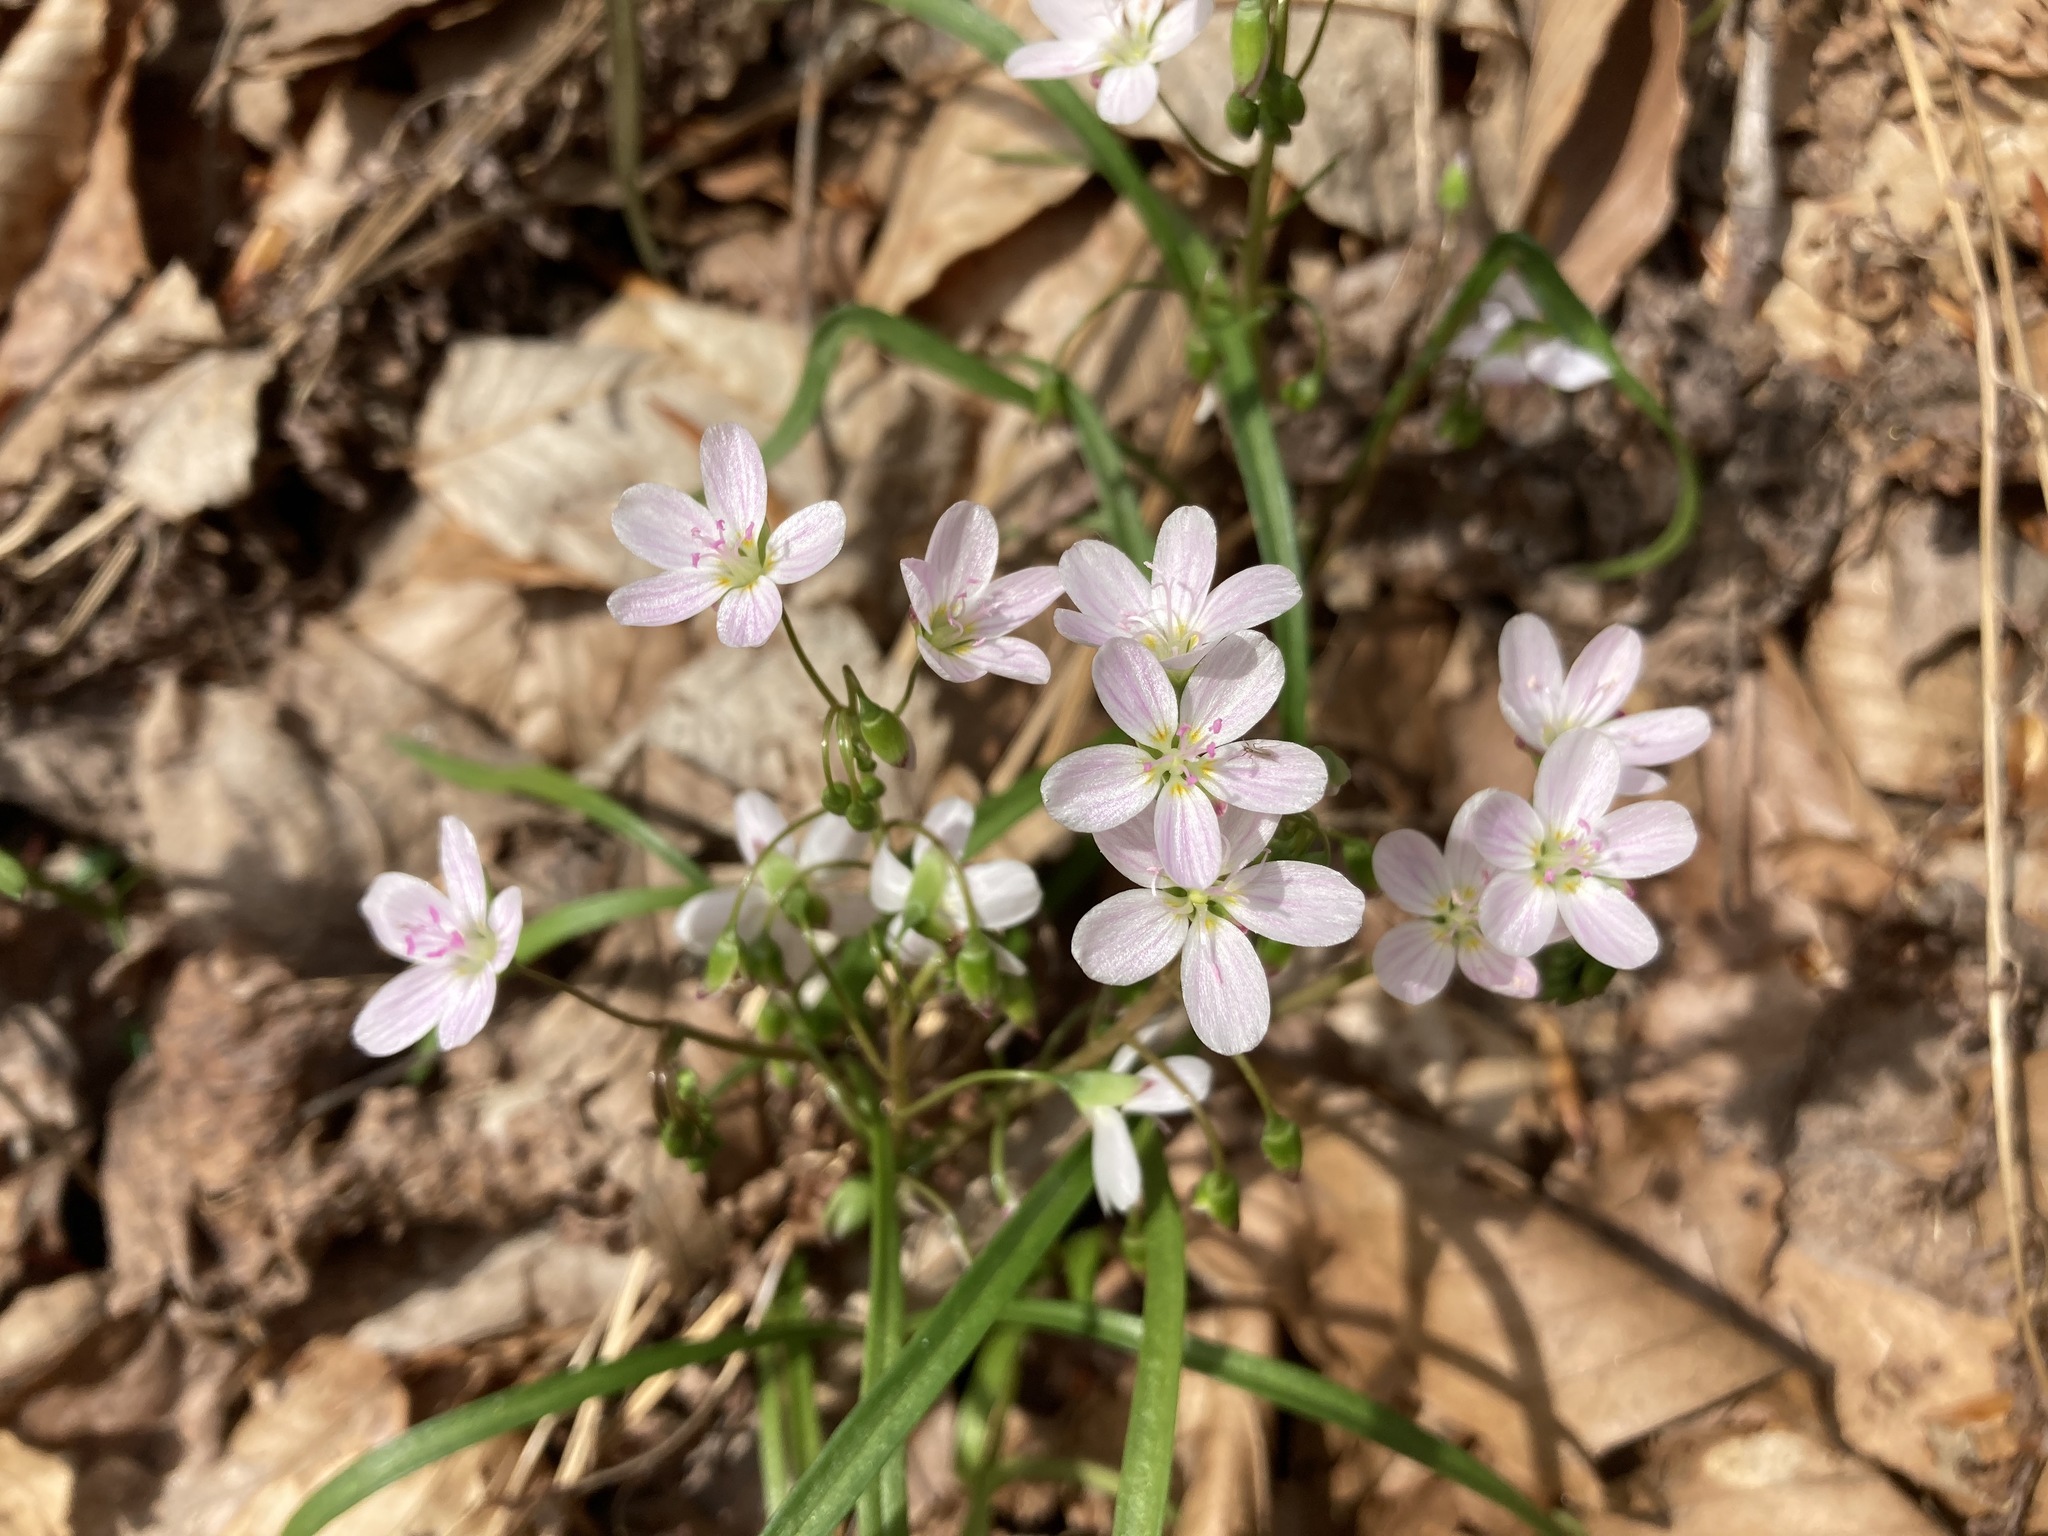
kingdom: Plantae
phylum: Tracheophyta
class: Magnoliopsida
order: Caryophyllales
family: Montiaceae
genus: Claytonia
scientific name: Claytonia virginica
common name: Virginia springbeauty
